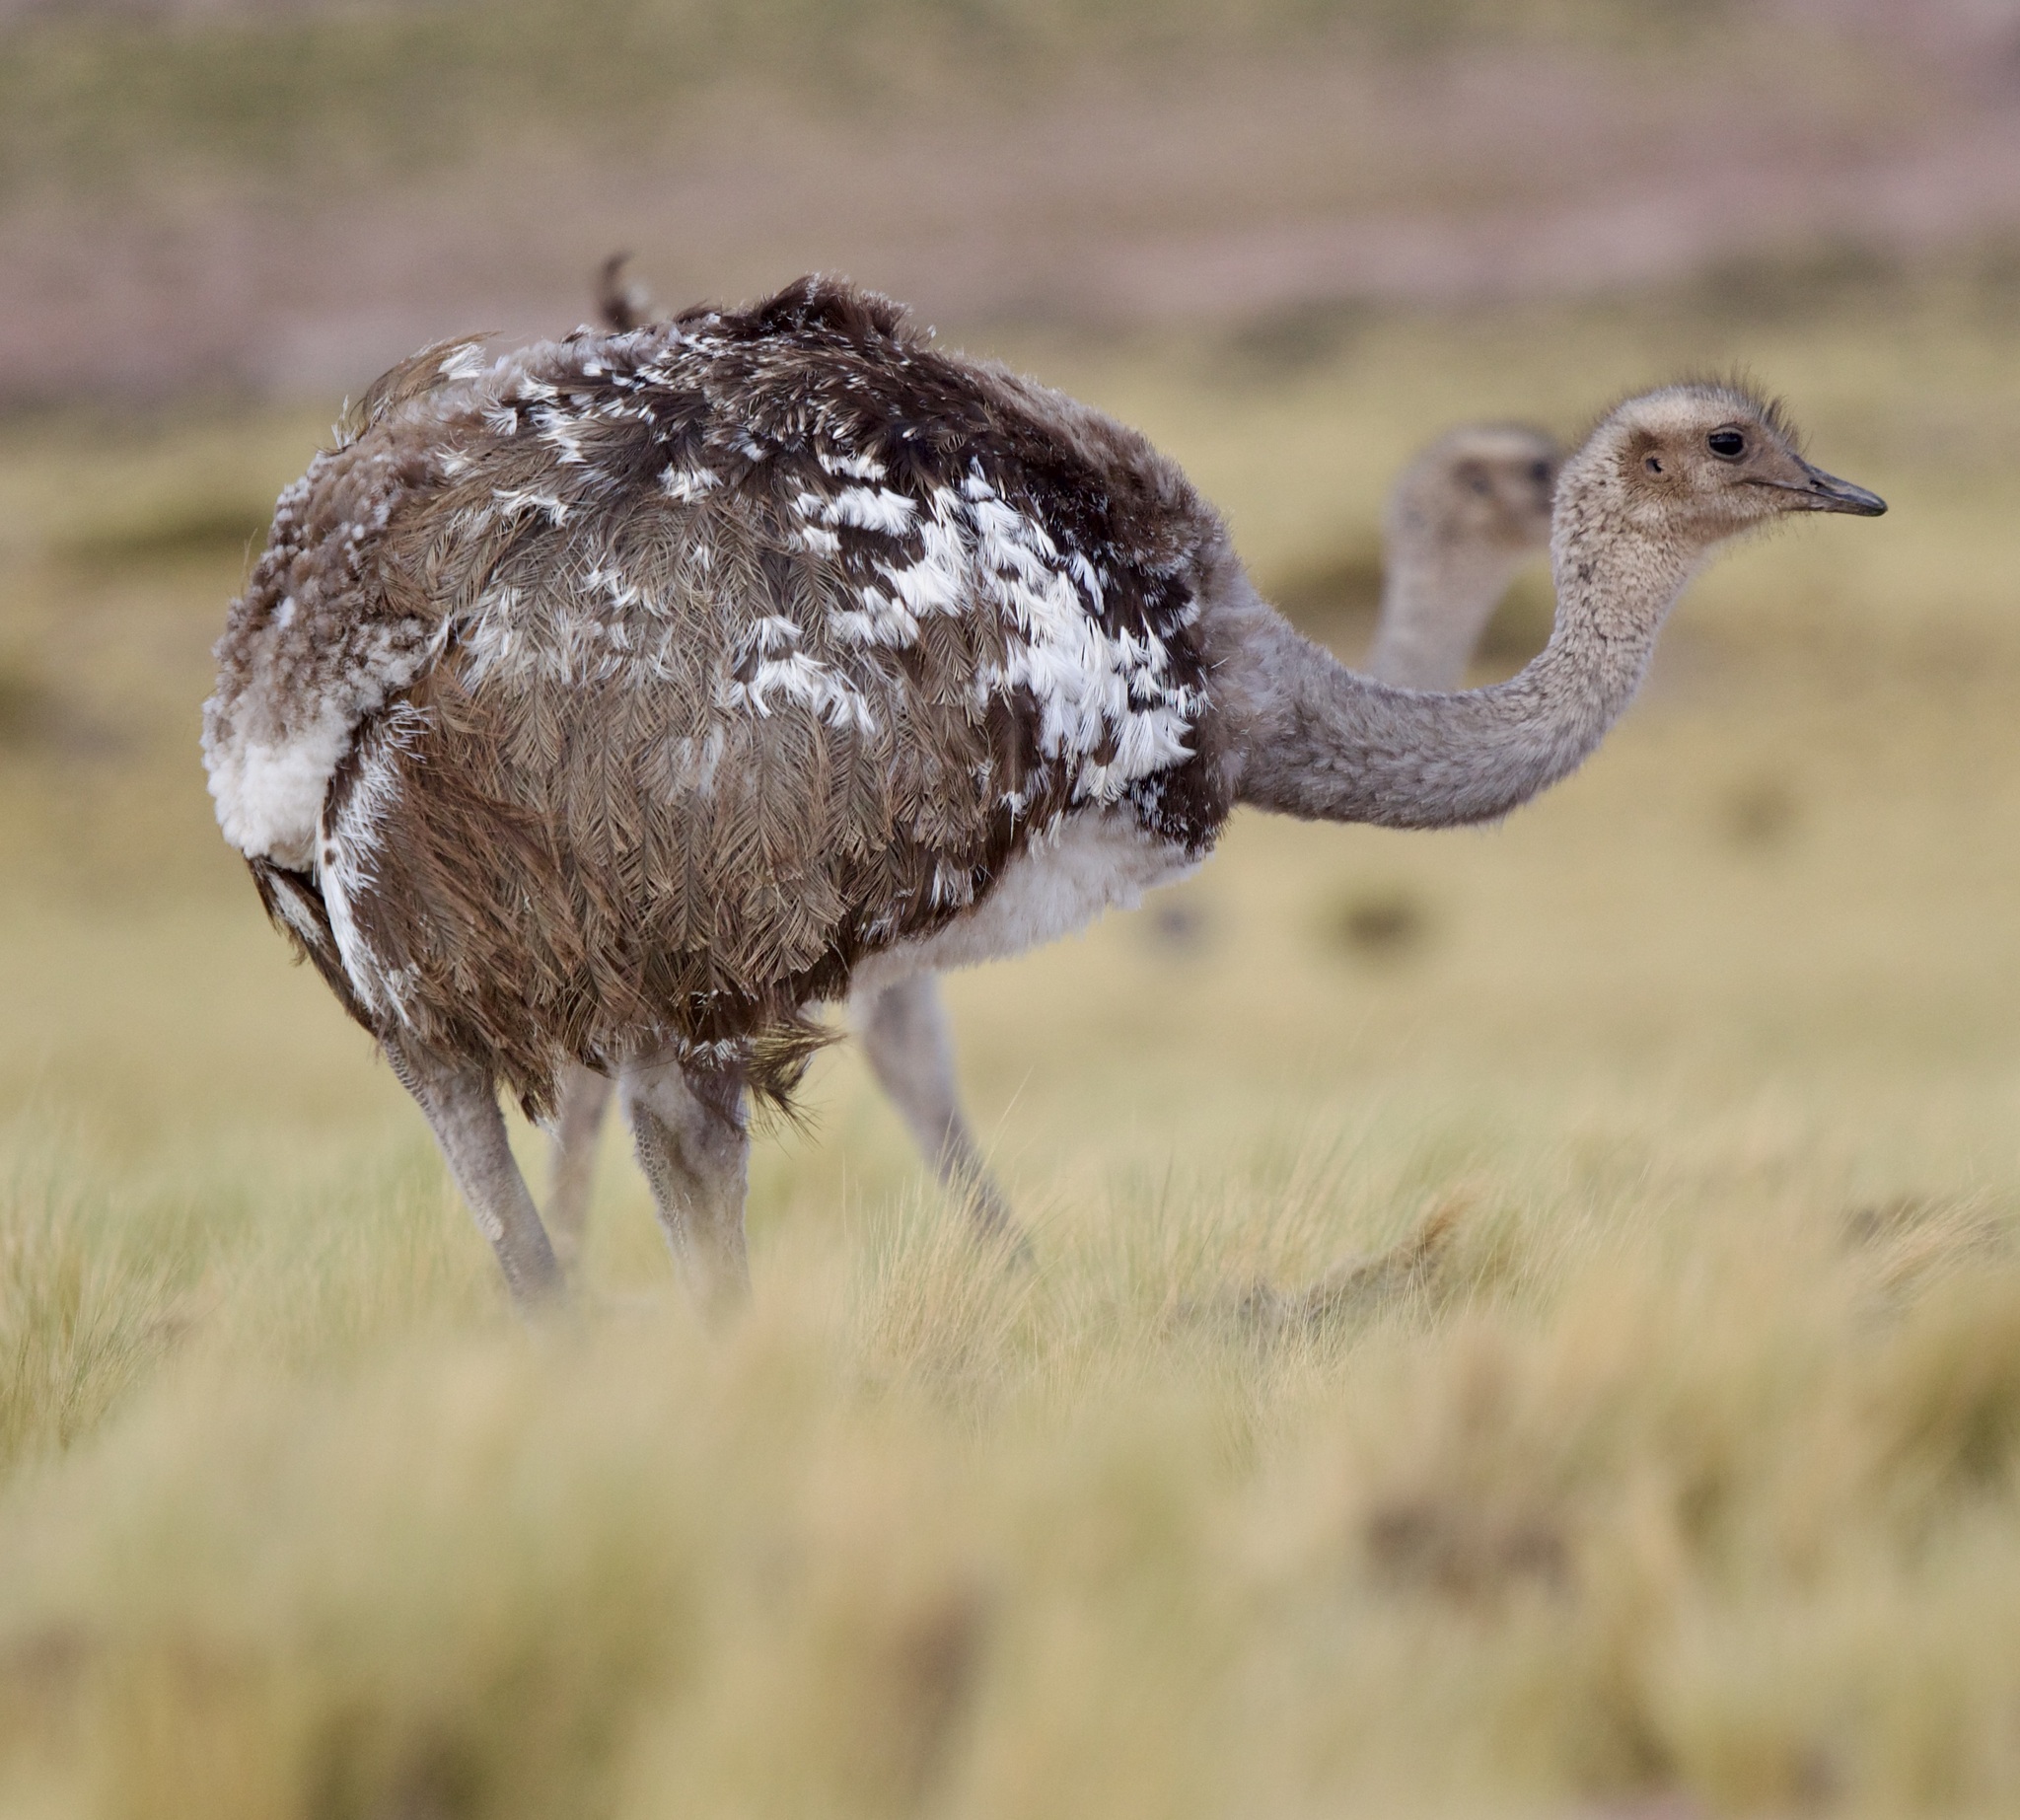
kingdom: Animalia
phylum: Chordata
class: Aves
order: Rheiformes
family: Rheidae
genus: Rhea
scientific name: Rhea pennata
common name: Lesser rhea
